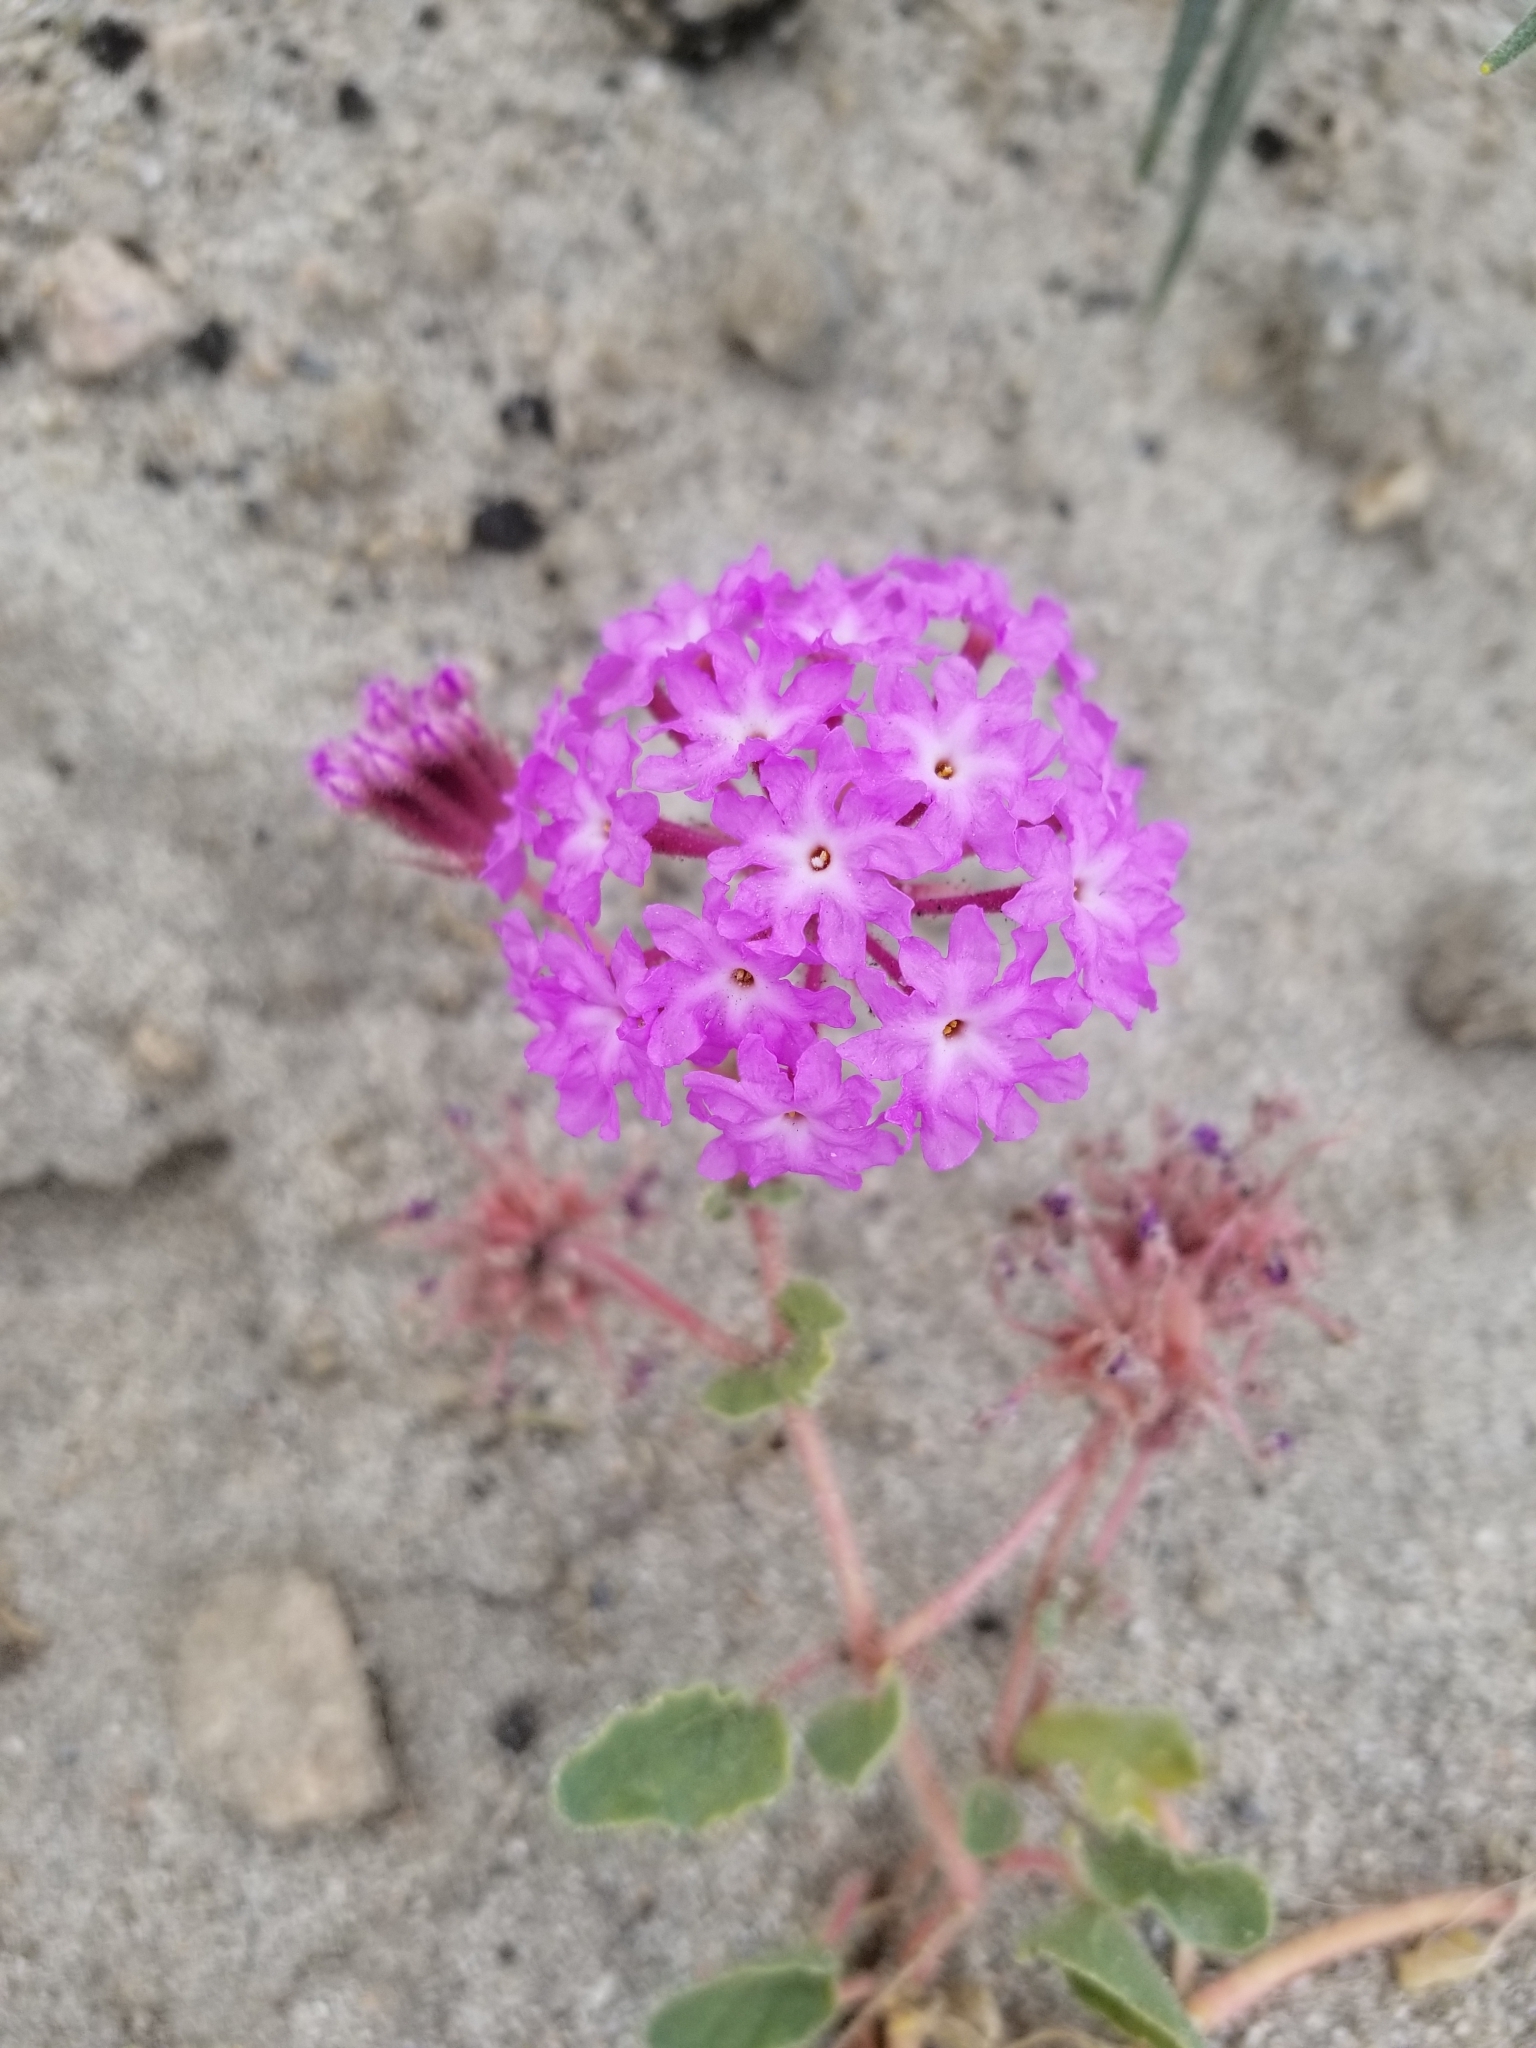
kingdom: Plantae
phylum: Tracheophyta
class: Magnoliopsida
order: Caryophyllales
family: Nyctaginaceae
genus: Abronia
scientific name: Abronia villosa
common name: Desert sand-verbena
